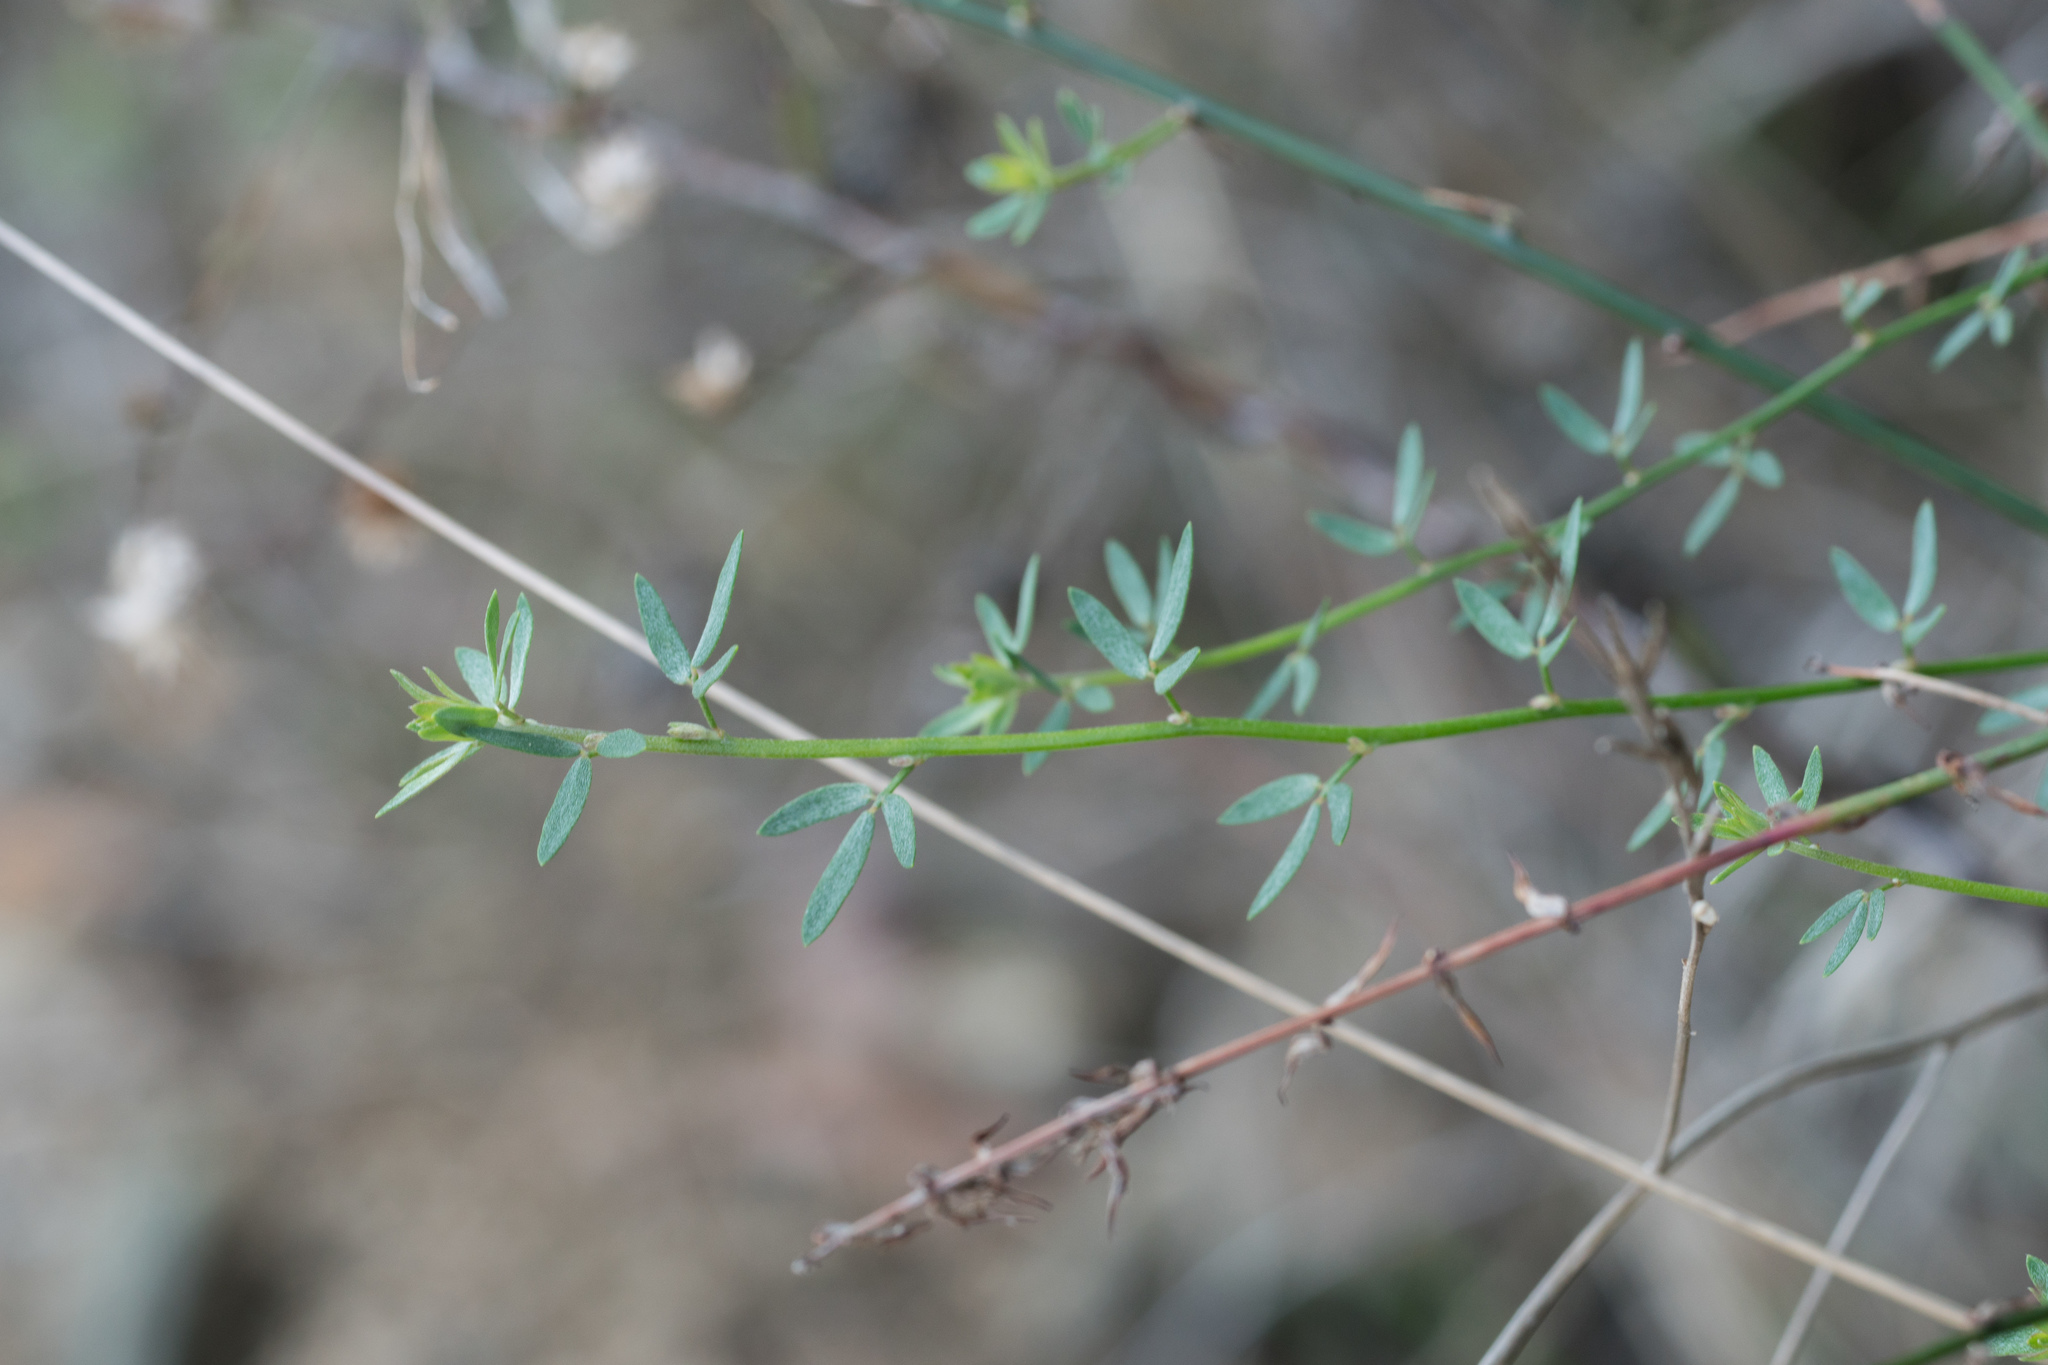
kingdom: Plantae
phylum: Tracheophyta
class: Magnoliopsida
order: Fabales
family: Fabaceae
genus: Acmispon
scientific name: Acmispon glaber
